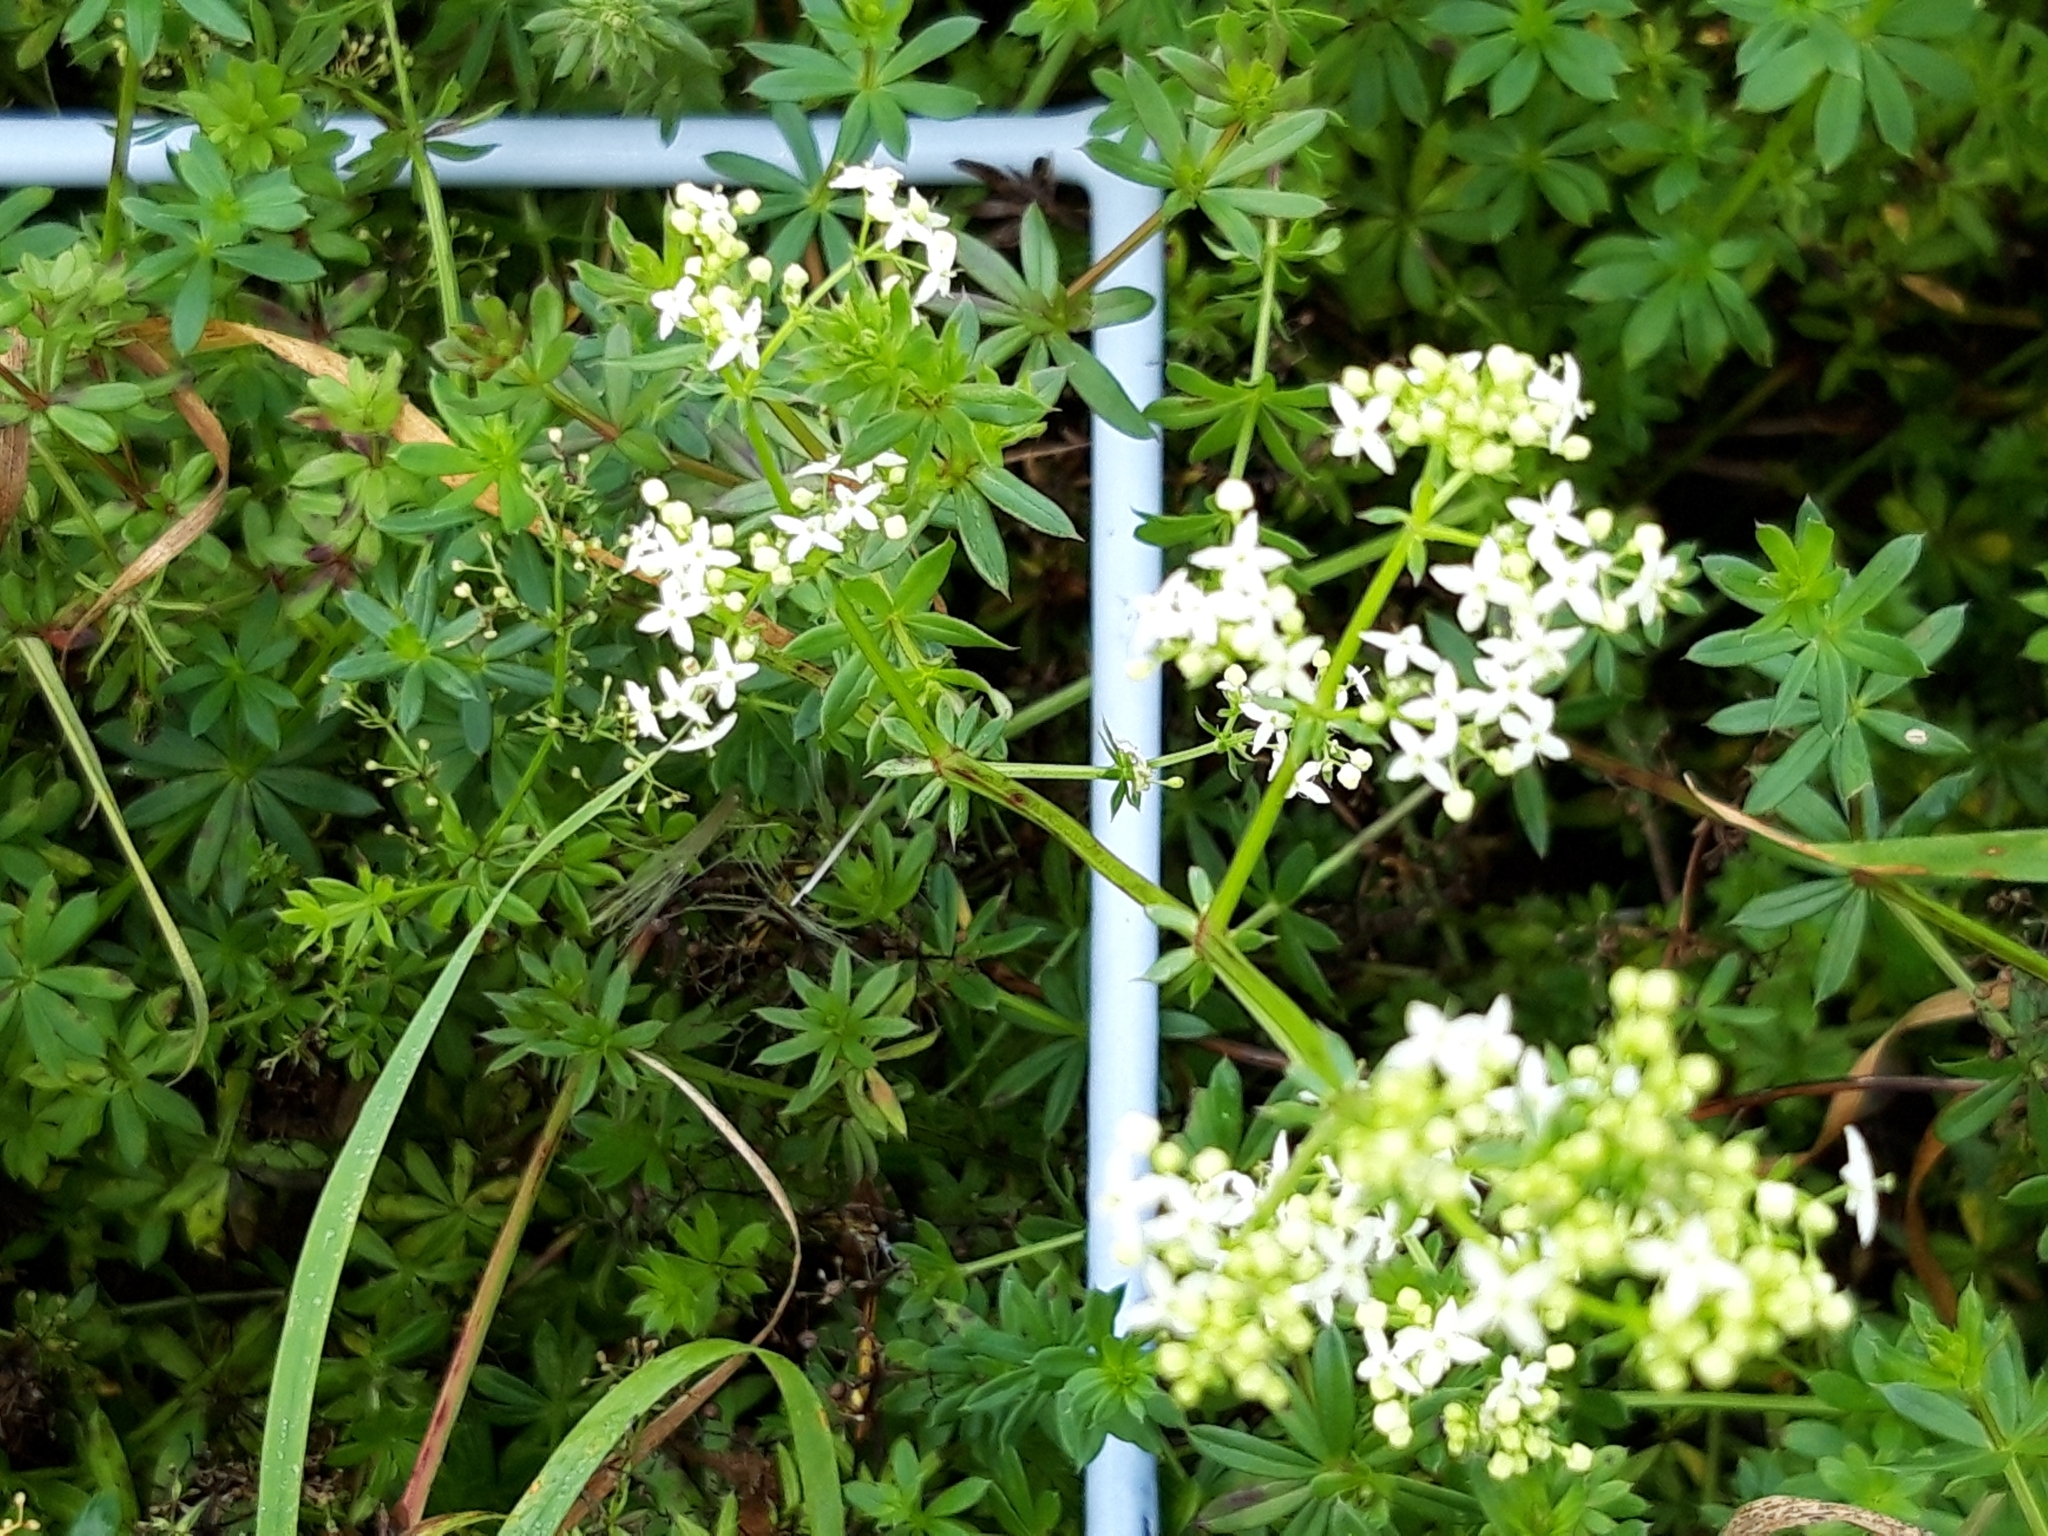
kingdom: Plantae
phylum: Tracheophyta
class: Magnoliopsida
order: Gentianales
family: Rubiaceae
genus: Galium
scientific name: Galium album
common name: White bedstraw
